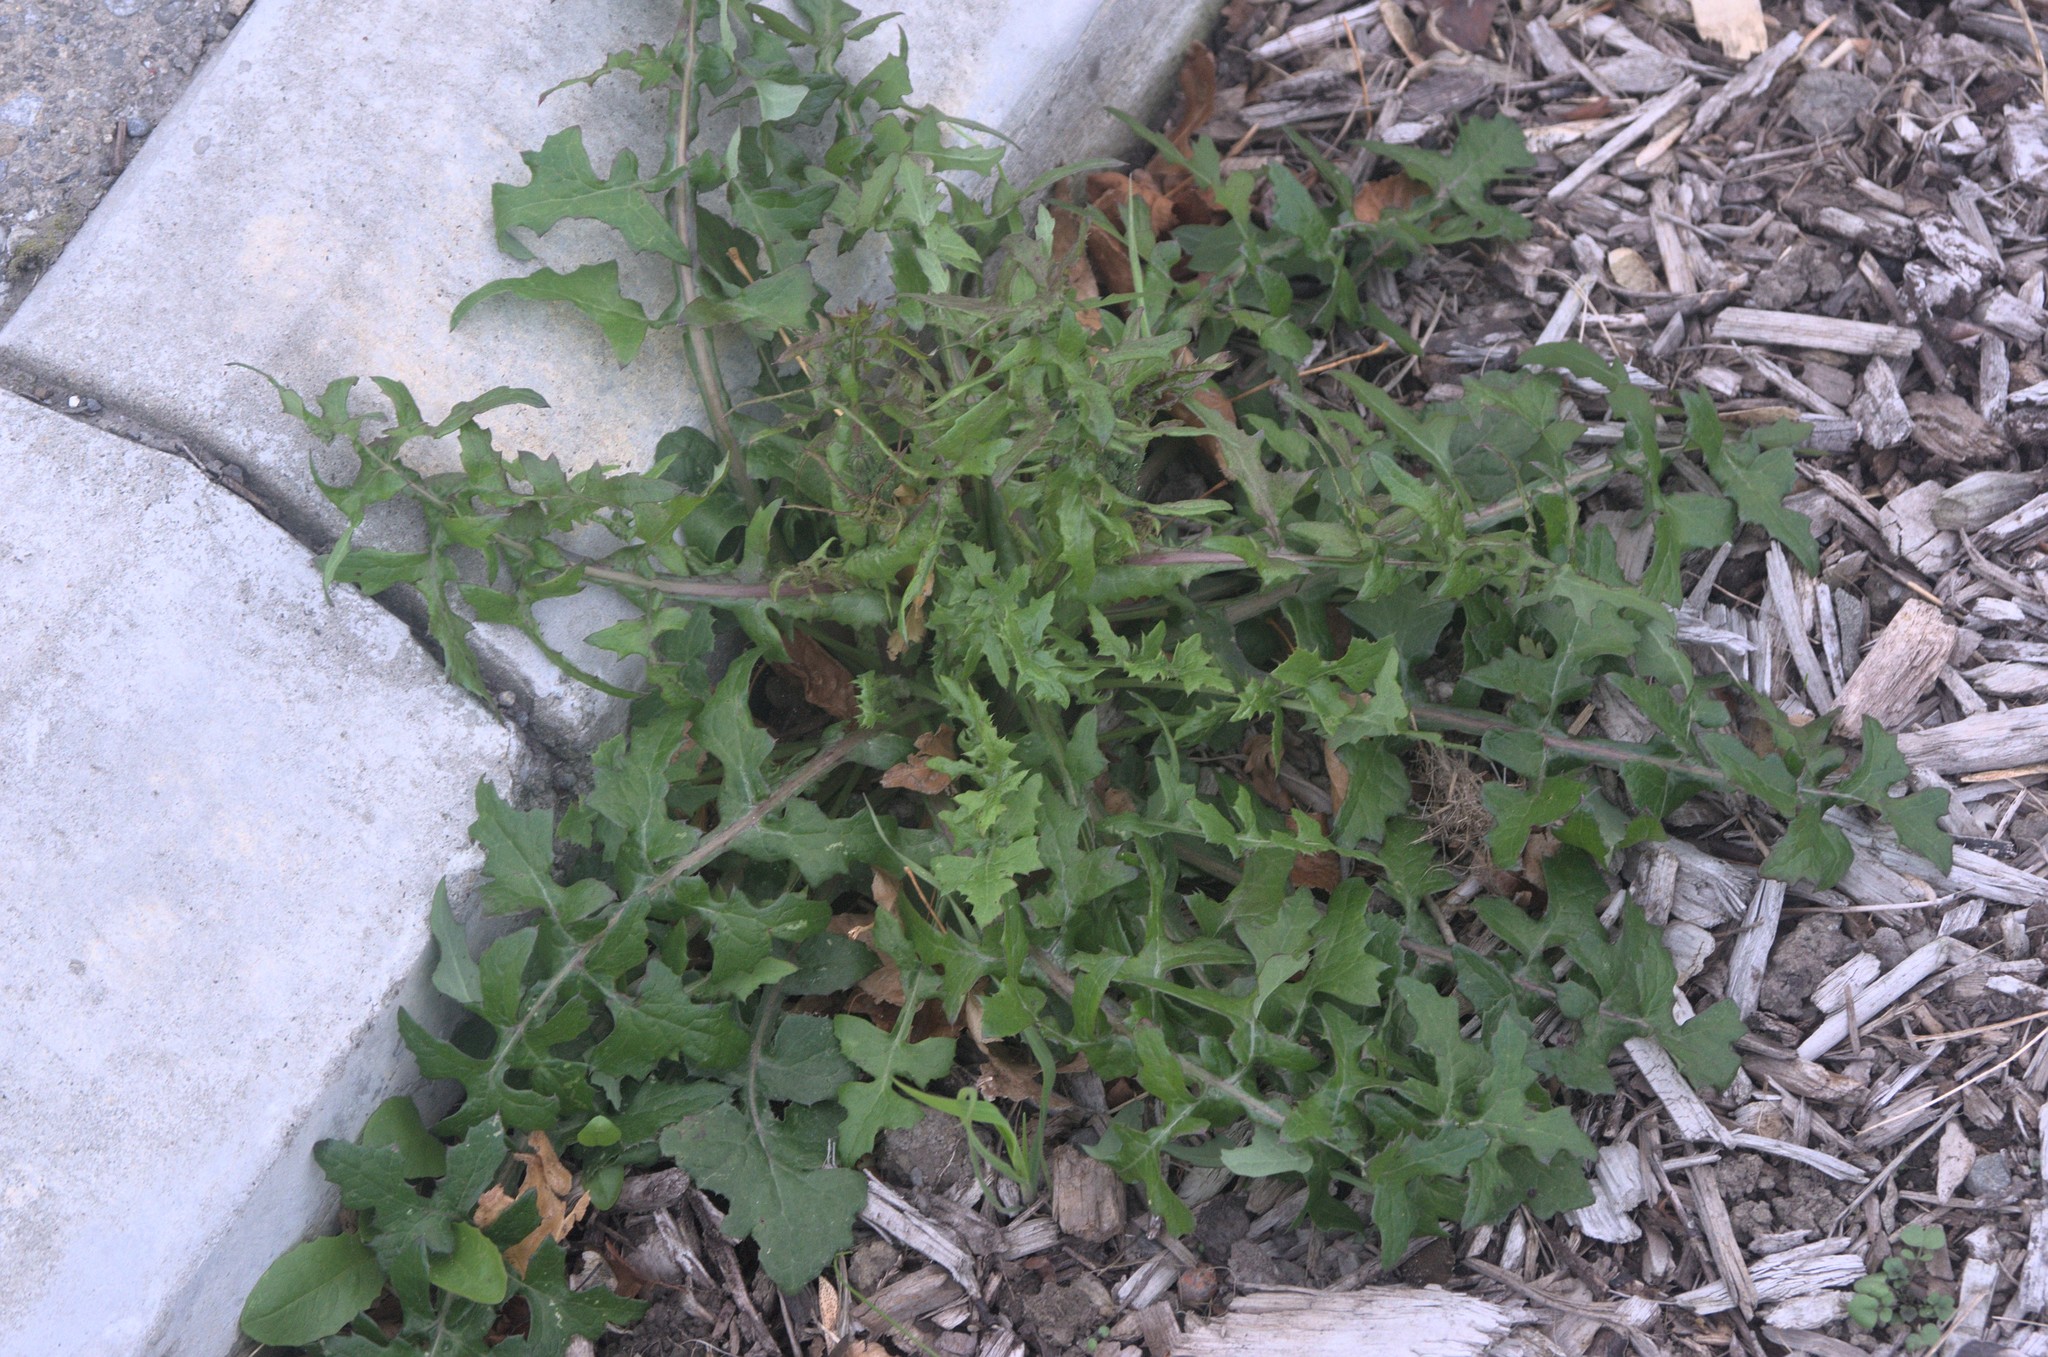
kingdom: Plantae
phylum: Tracheophyta
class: Magnoliopsida
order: Asterales
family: Asteraceae
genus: Sonchus
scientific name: Sonchus oleraceus
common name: Common sowthistle
